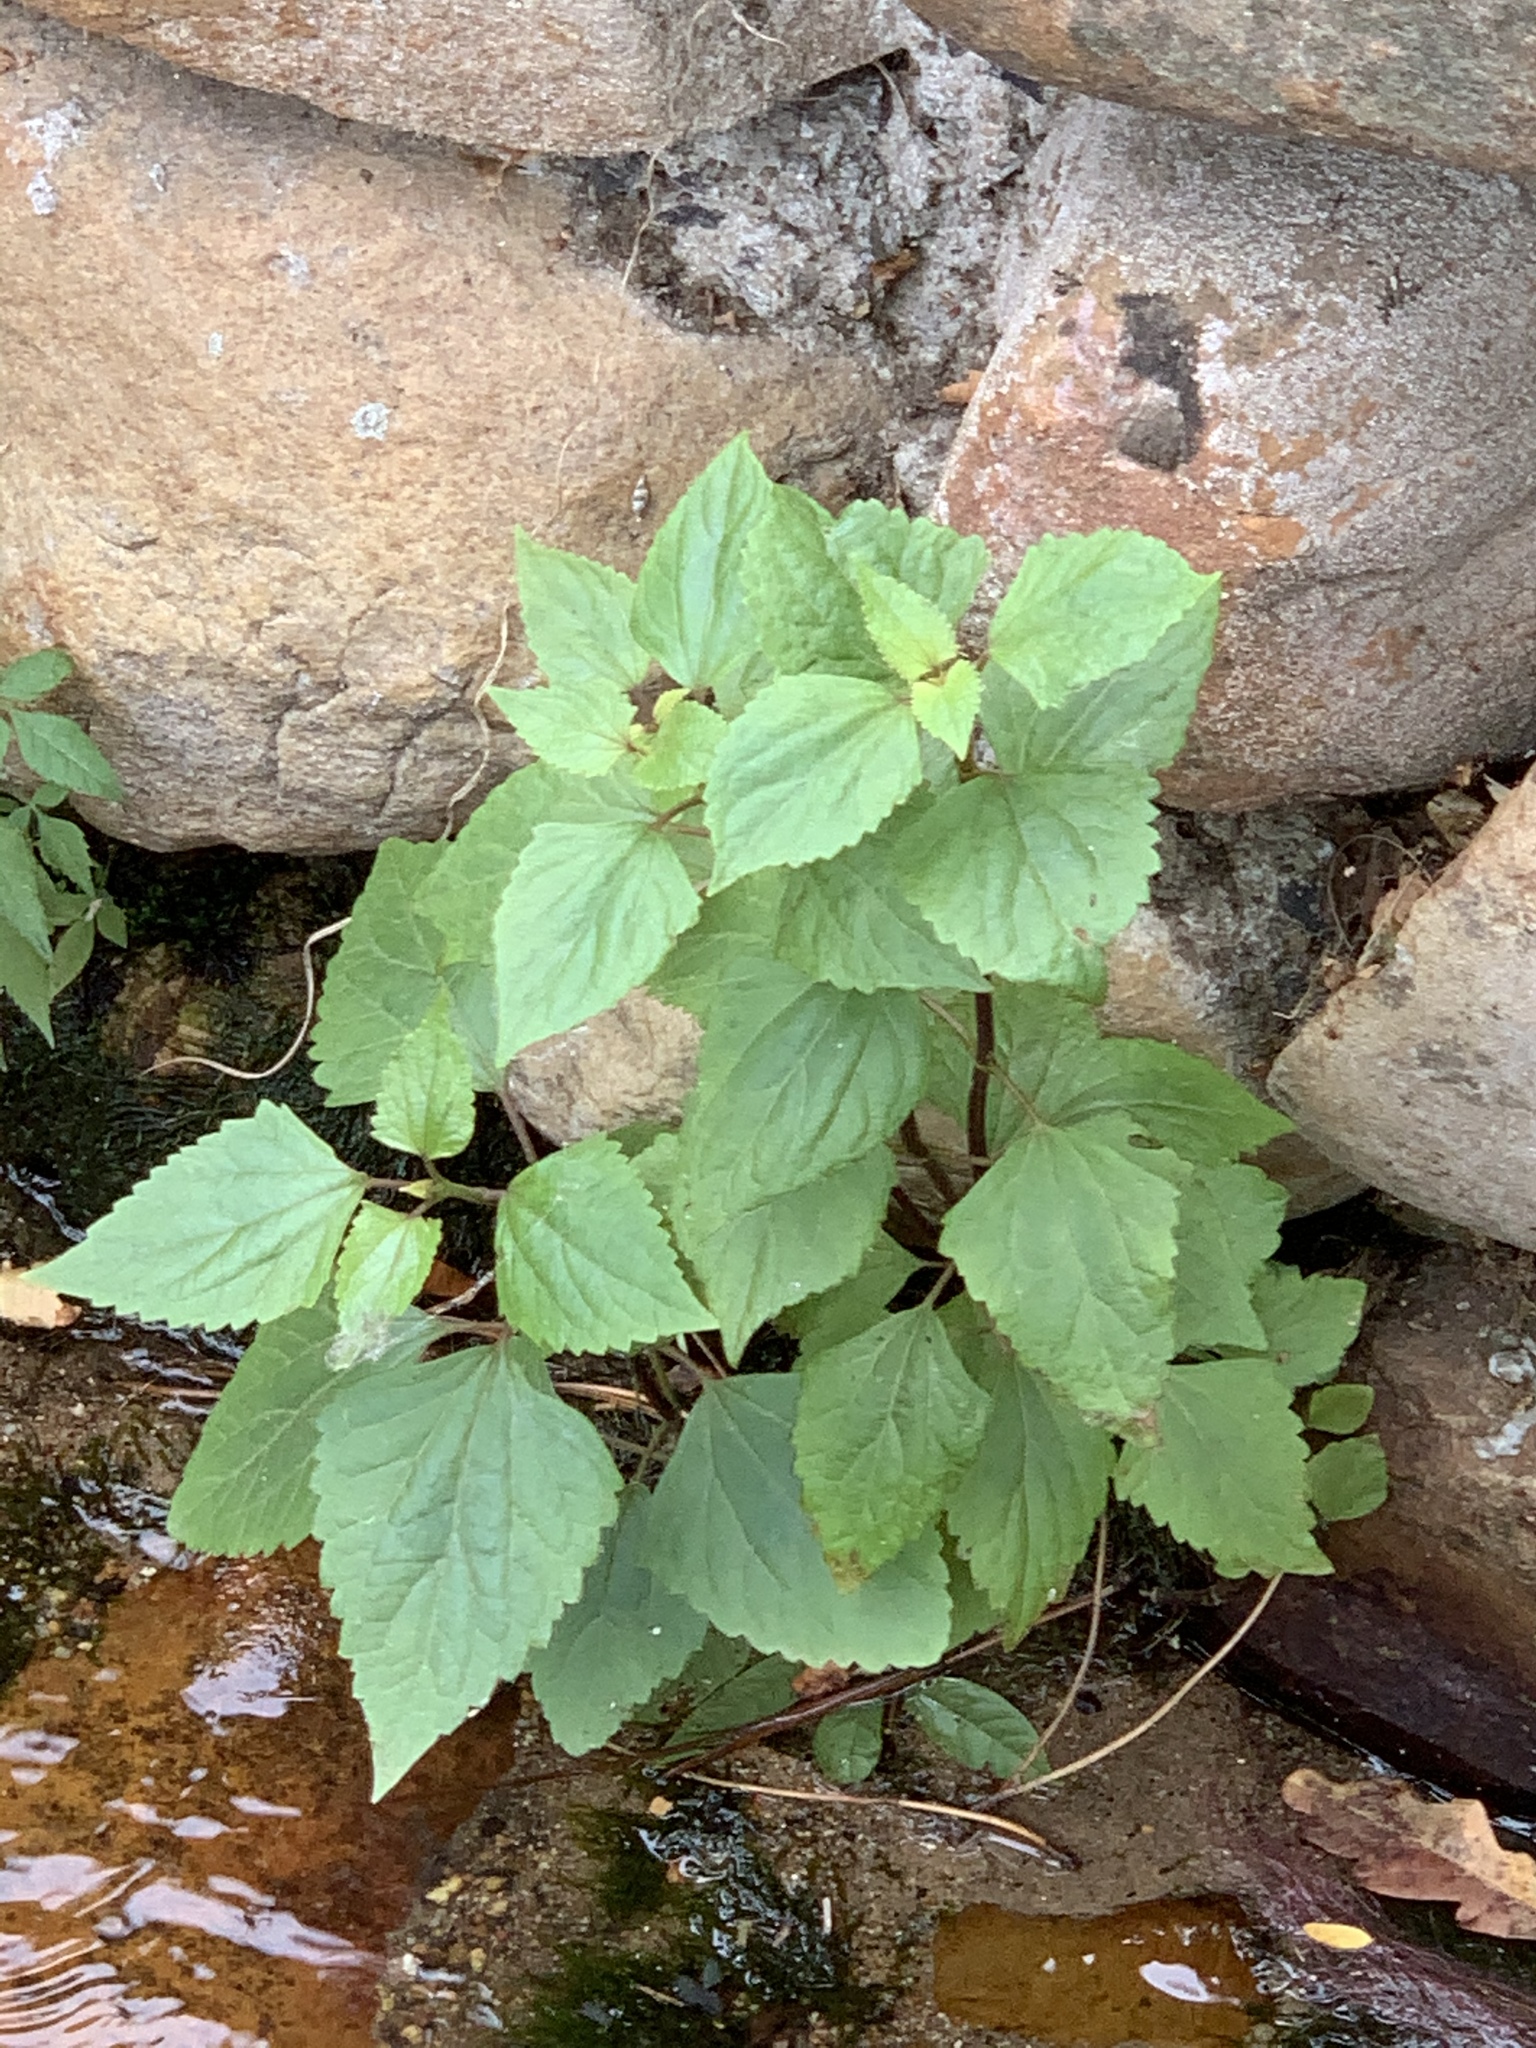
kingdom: Plantae
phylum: Tracheophyta
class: Magnoliopsida
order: Asterales
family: Asteraceae
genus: Ageratina
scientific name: Ageratina adenophora
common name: Sticky snakeroot
